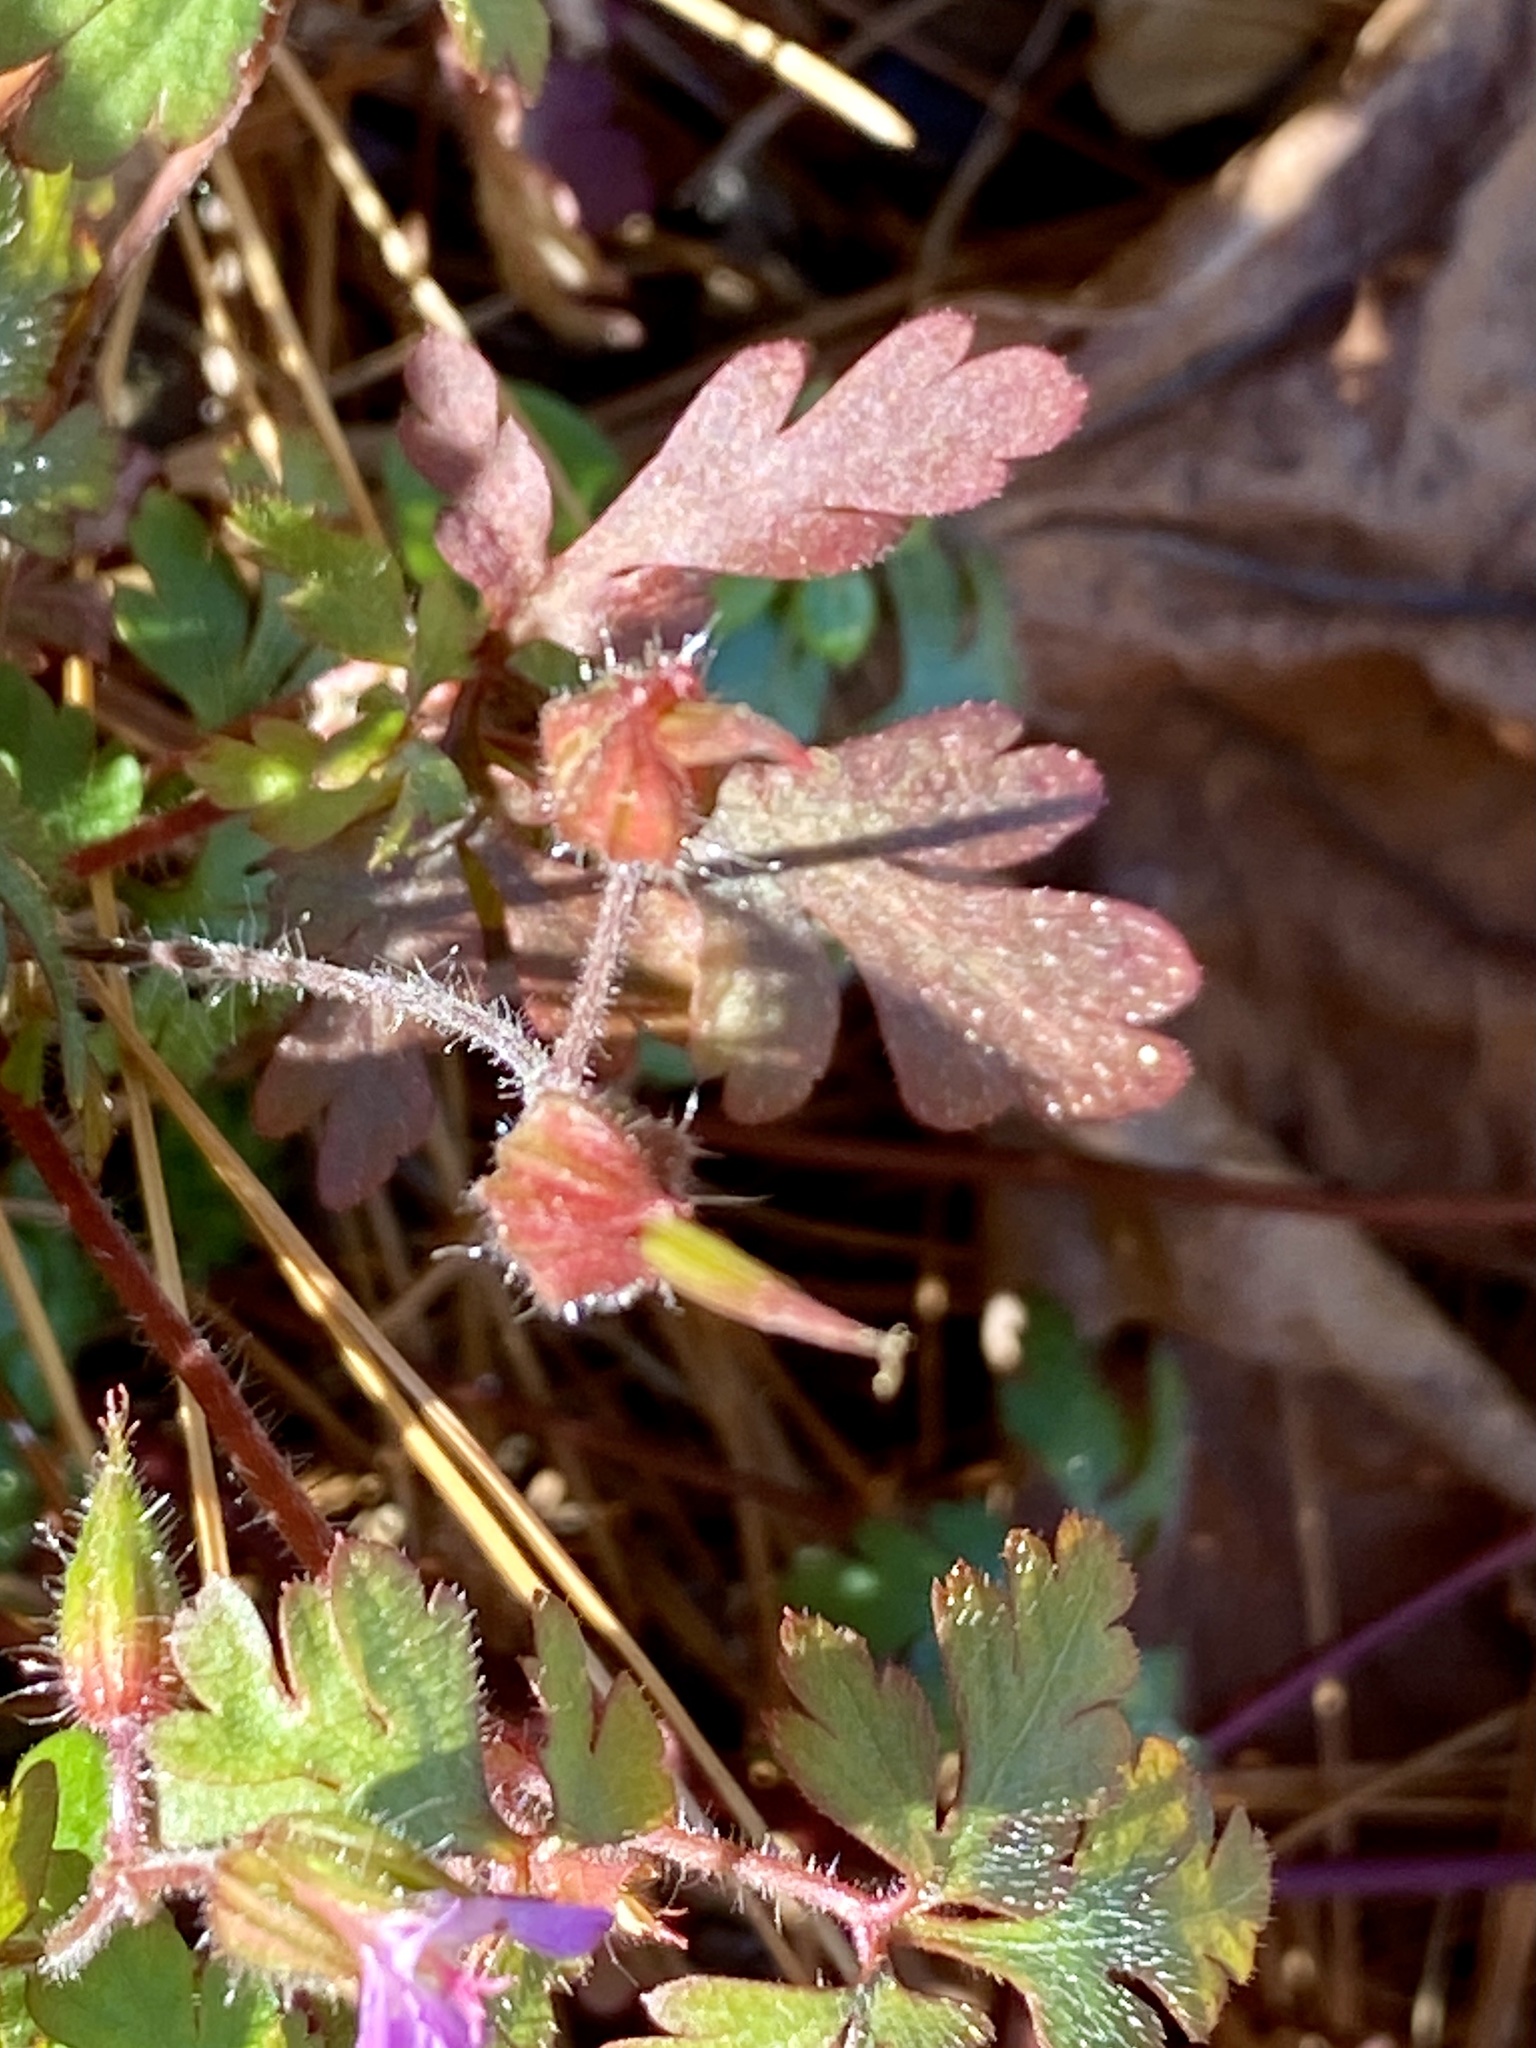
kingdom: Plantae
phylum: Tracheophyta
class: Magnoliopsida
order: Geraniales
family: Geraniaceae
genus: Geranium
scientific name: Geranium robertianum
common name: Herb-robert
